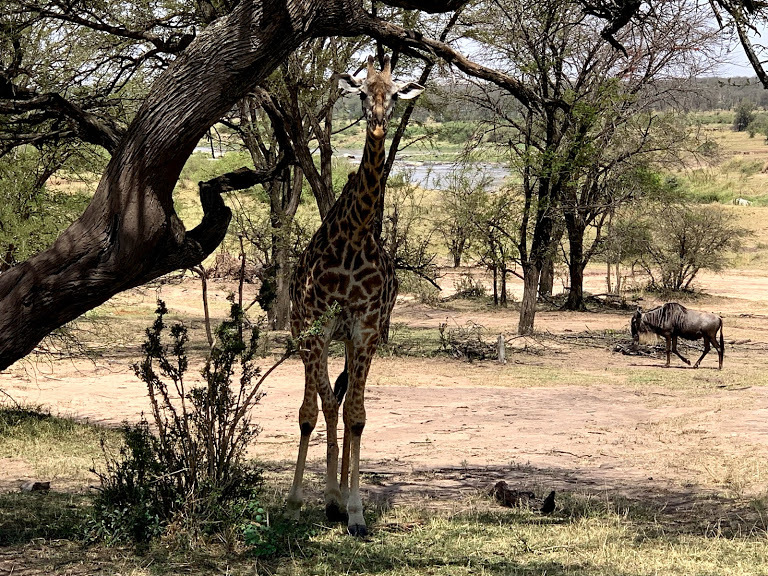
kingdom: Animalia
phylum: Chordata
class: Mammalia
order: Artiodactyla
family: Giraffidae
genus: Giraffa
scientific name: Giraffa tippelskirchi
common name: Masai giraffe
